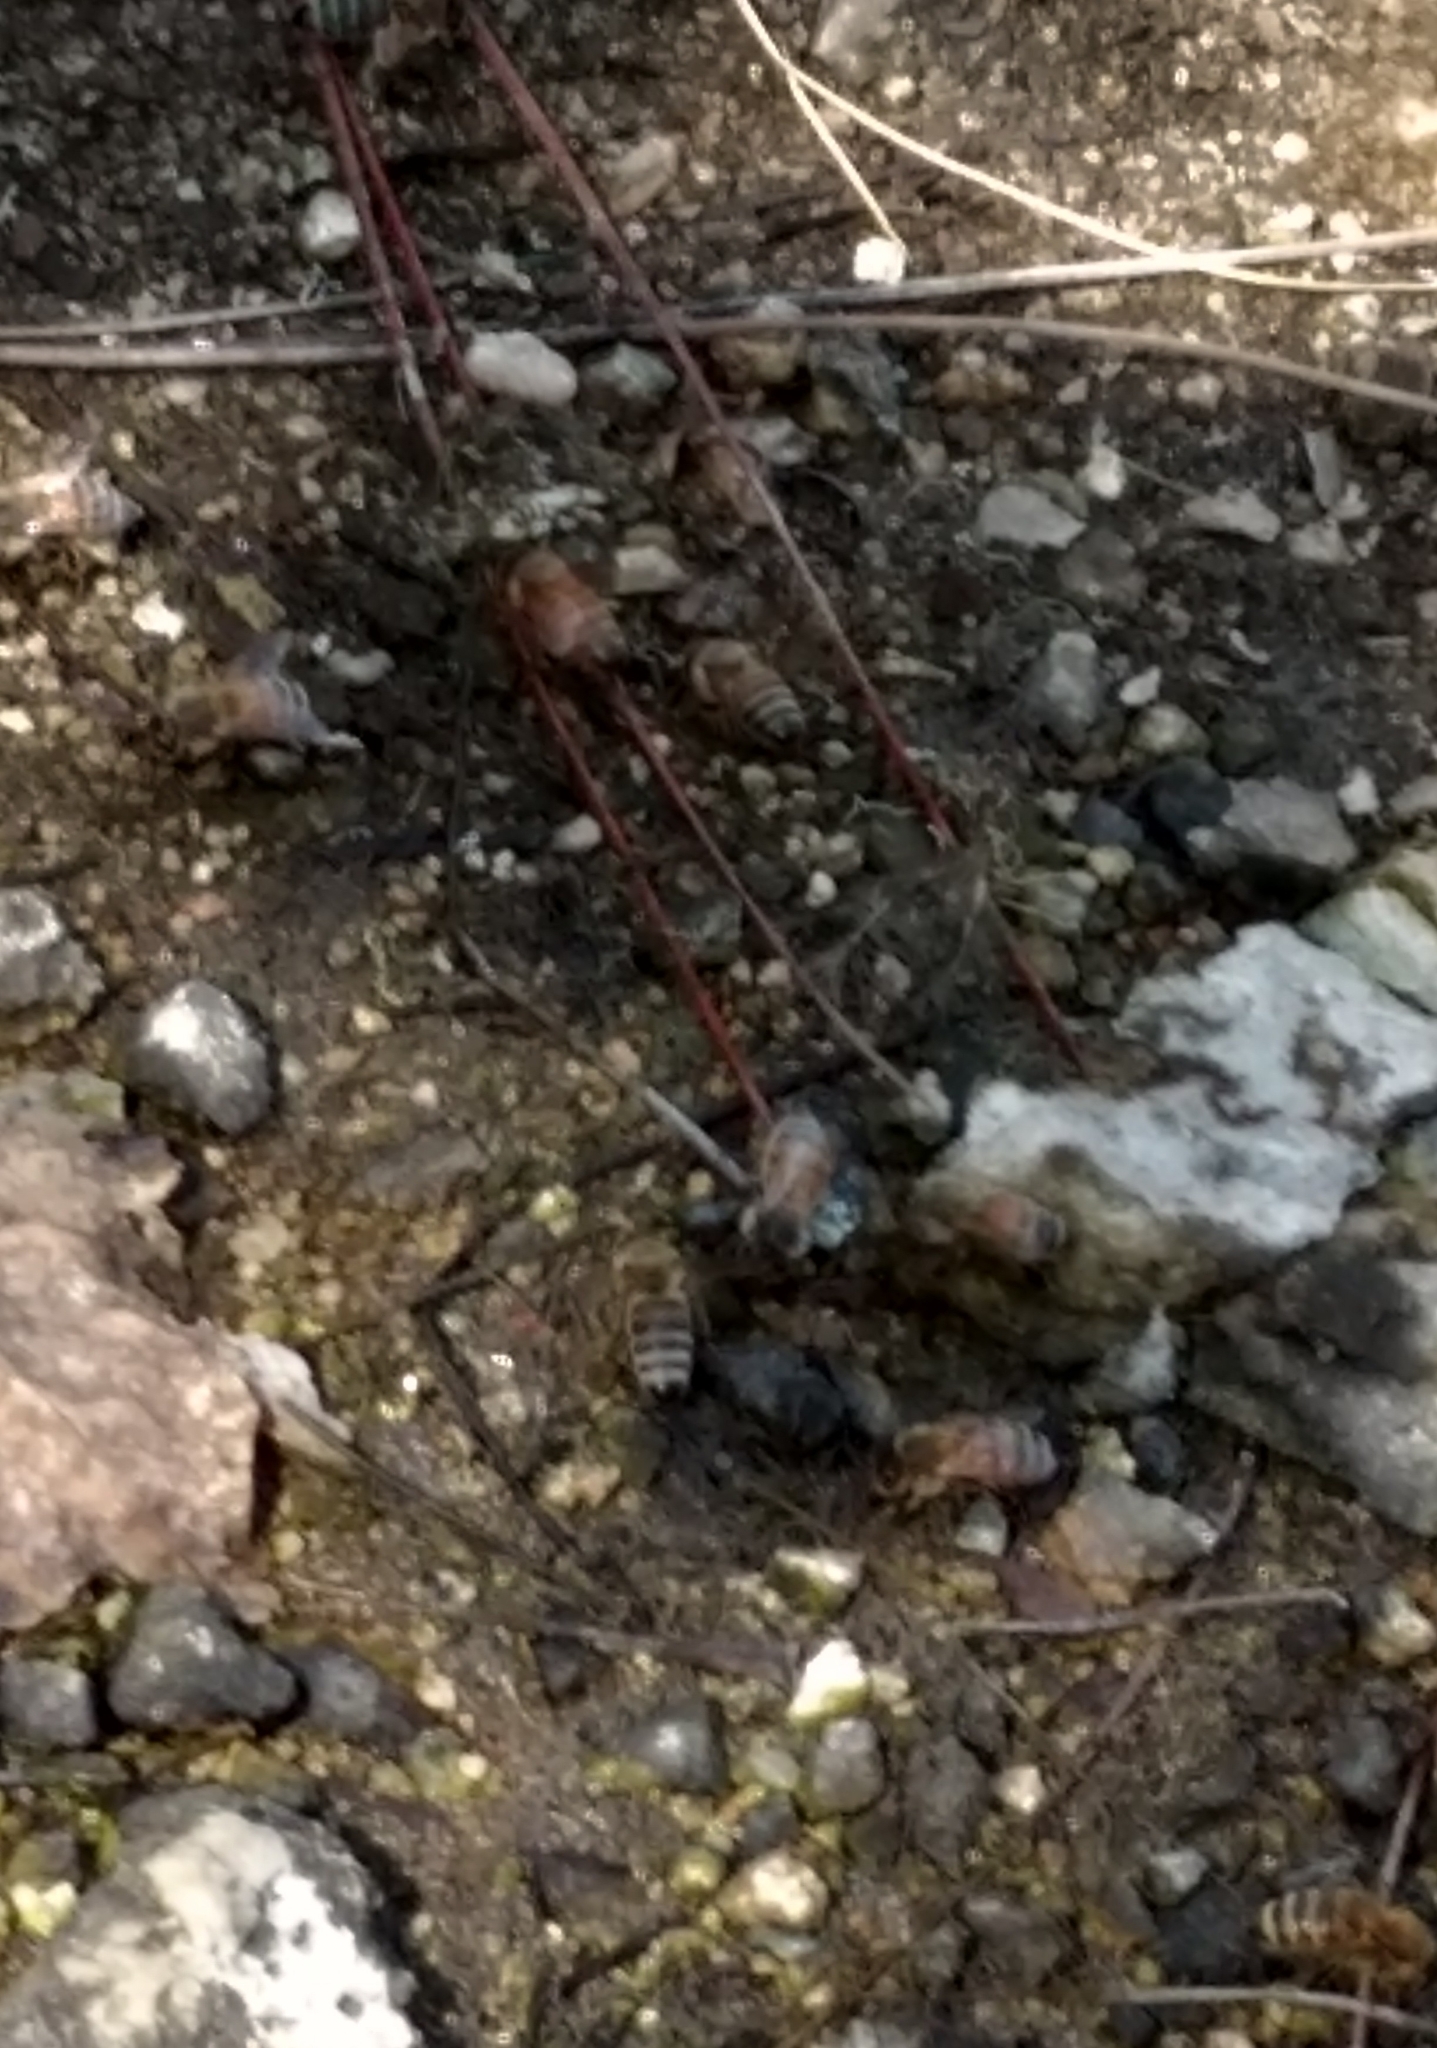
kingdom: Animalia
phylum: Arthropoda
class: Insecta
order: Hymenoptera
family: Apidae
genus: Apis
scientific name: Apis mellifera
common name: Honey bee
